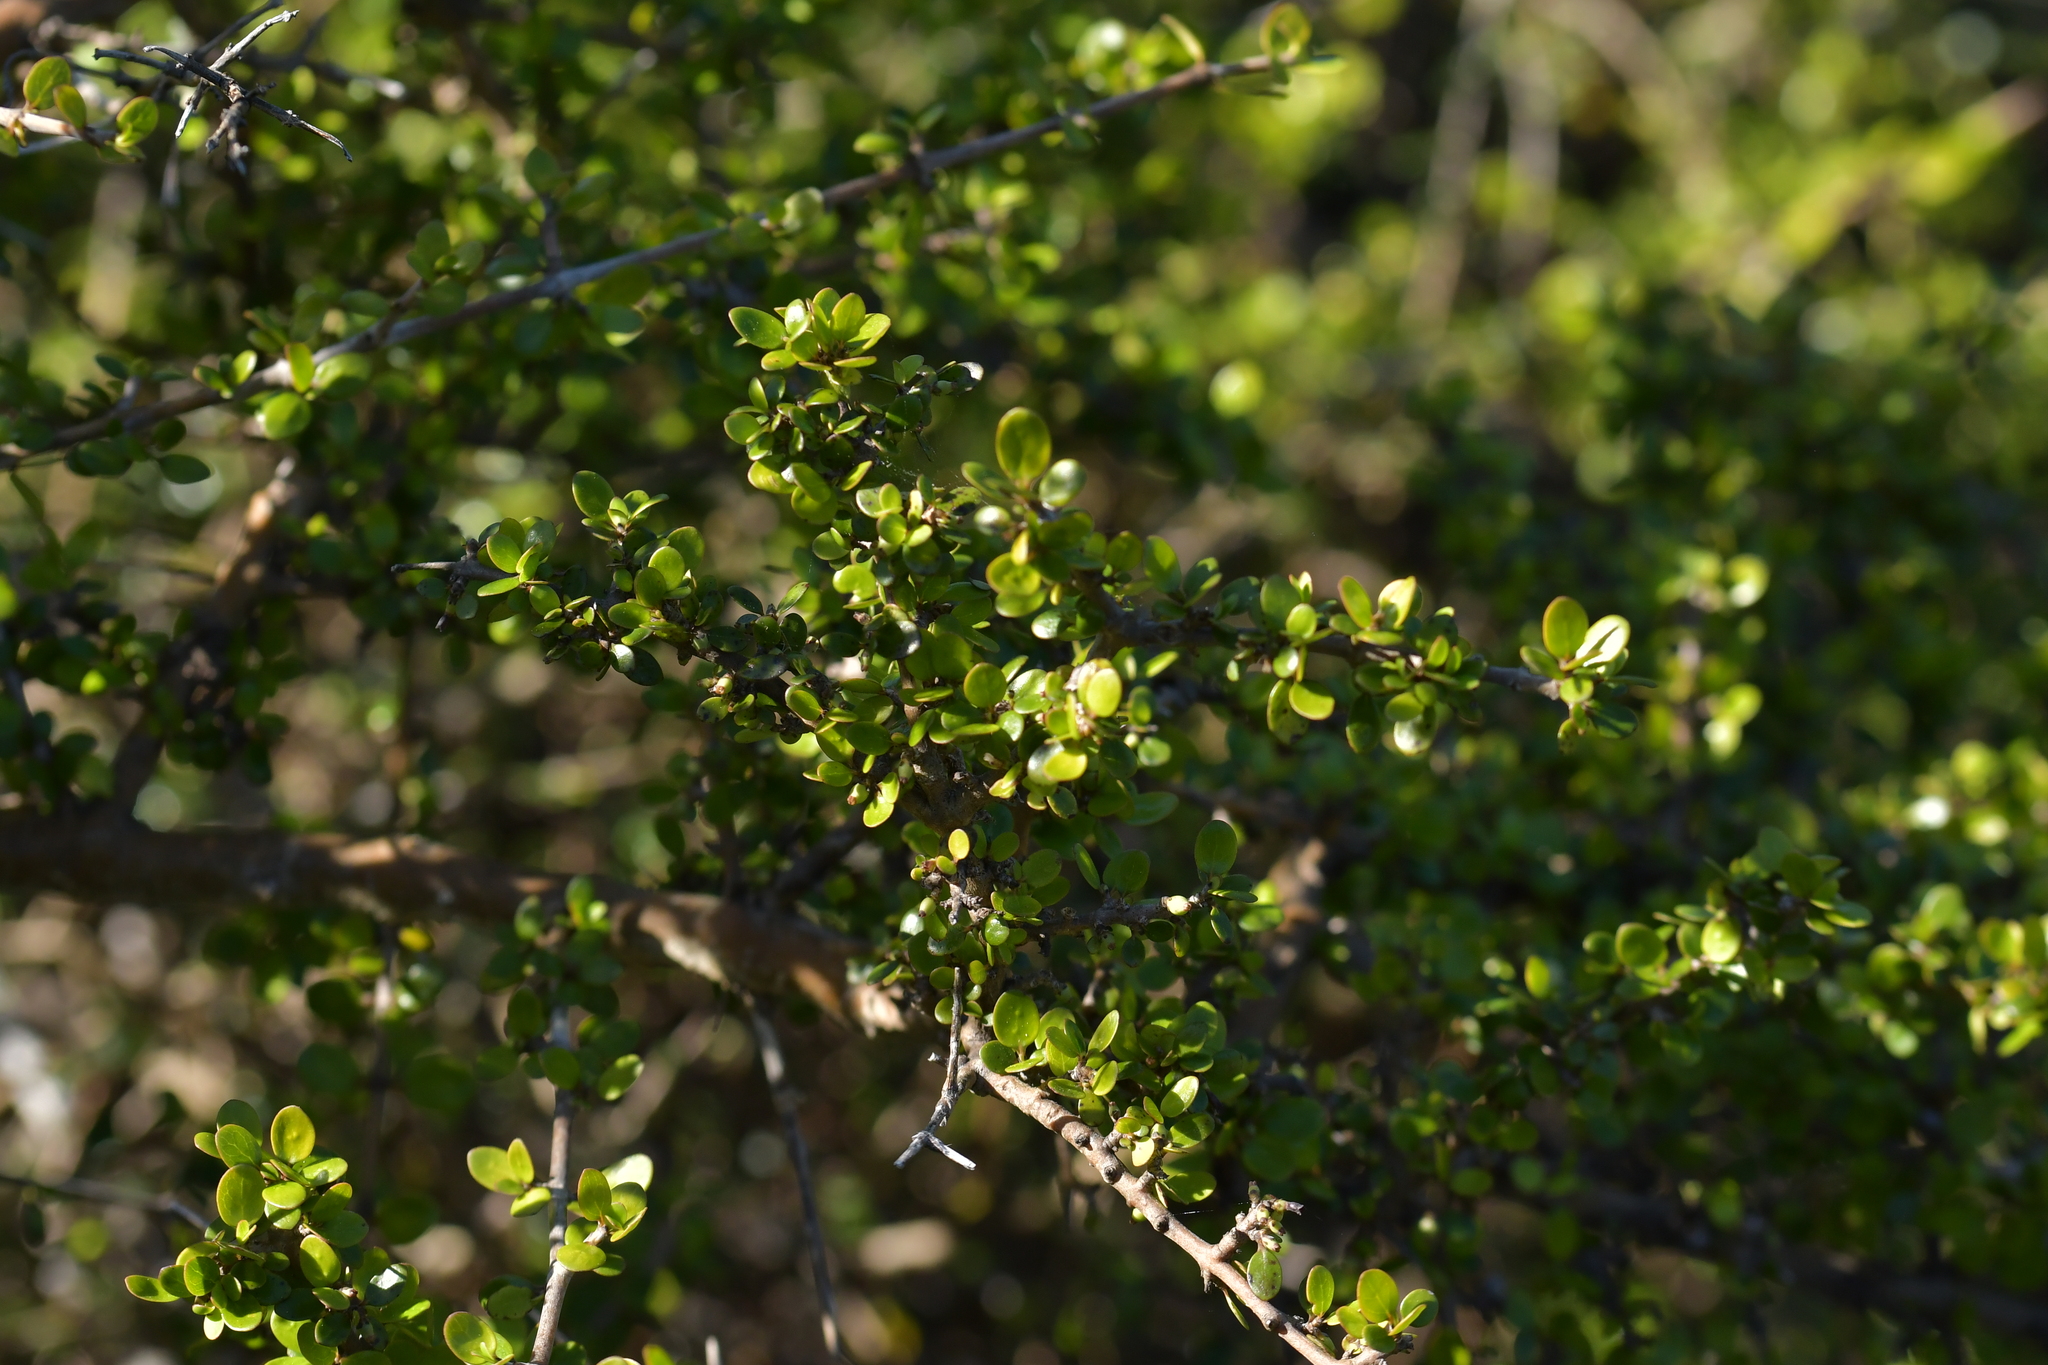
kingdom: Plantae
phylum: Tracheophyta
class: Magnoliopsida
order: Gentianales
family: Rubiaceae
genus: Coprosma
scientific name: Coprosma dumosa
